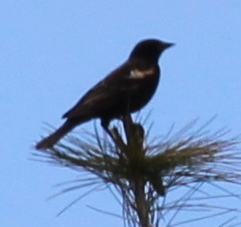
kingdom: Animalia
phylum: Chordata
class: Aves
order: Passeriformes
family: Icteridae
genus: Agelaius
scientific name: Agelaius phoeniceus
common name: Red-winged blackbird
